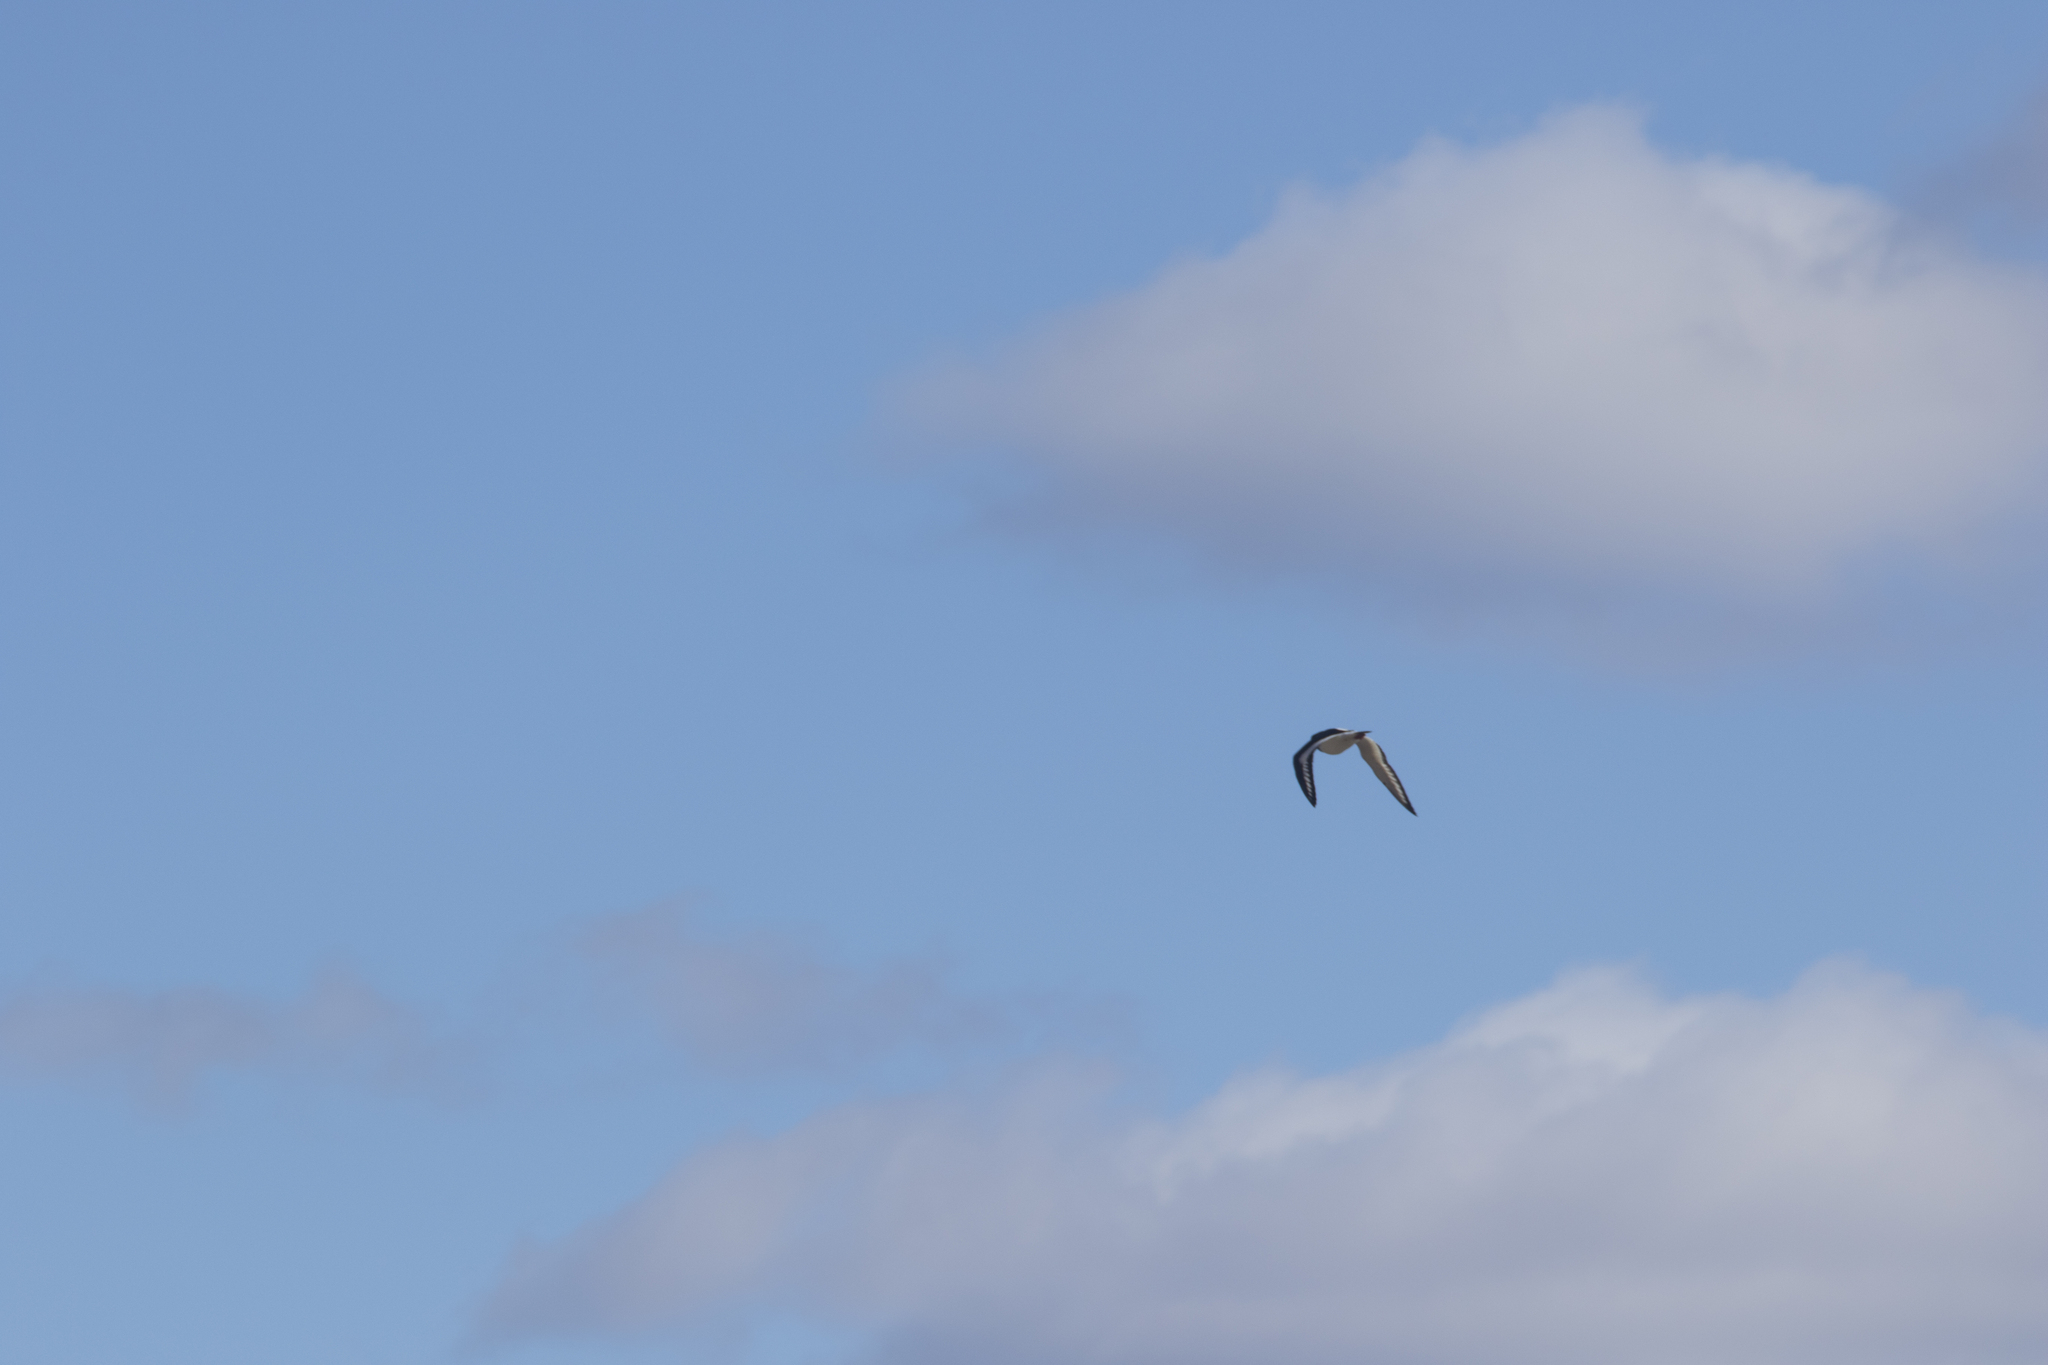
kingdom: Animalia
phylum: Chordata
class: Aves
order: Charadriiformes
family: Haematopodidae
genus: Haematopus
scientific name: Haematopus ostralegus
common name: Eurasian oystercatcher
